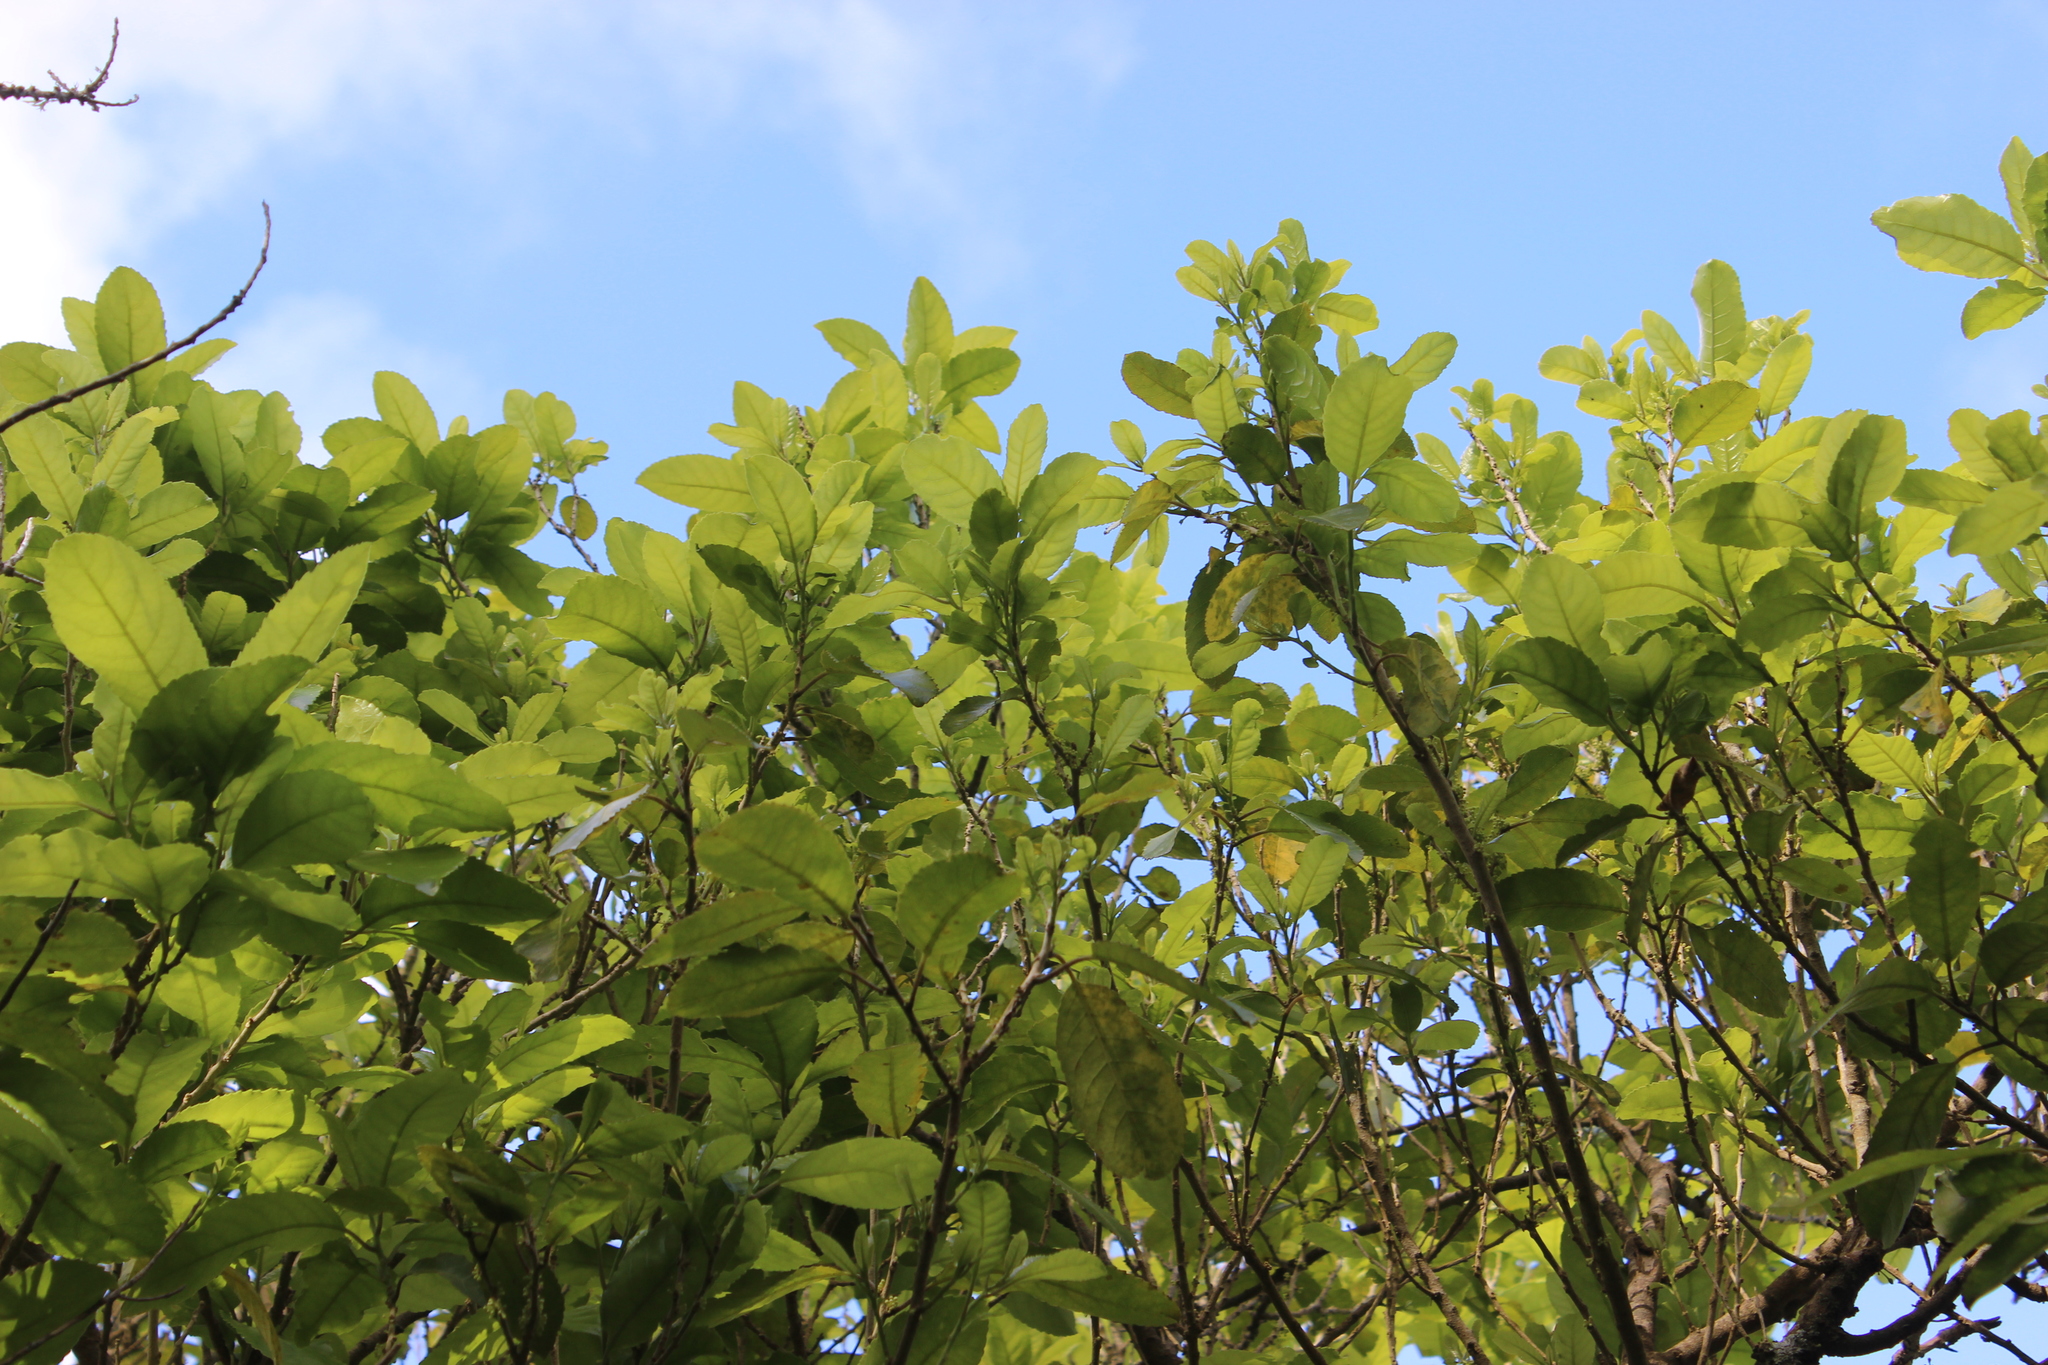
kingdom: Plantae
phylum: Tracheophyta
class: Magnoliopsida
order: Malpighiales
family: Violaceae
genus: Melicytus
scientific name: Melicytus ramiflorus
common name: Mahoe
